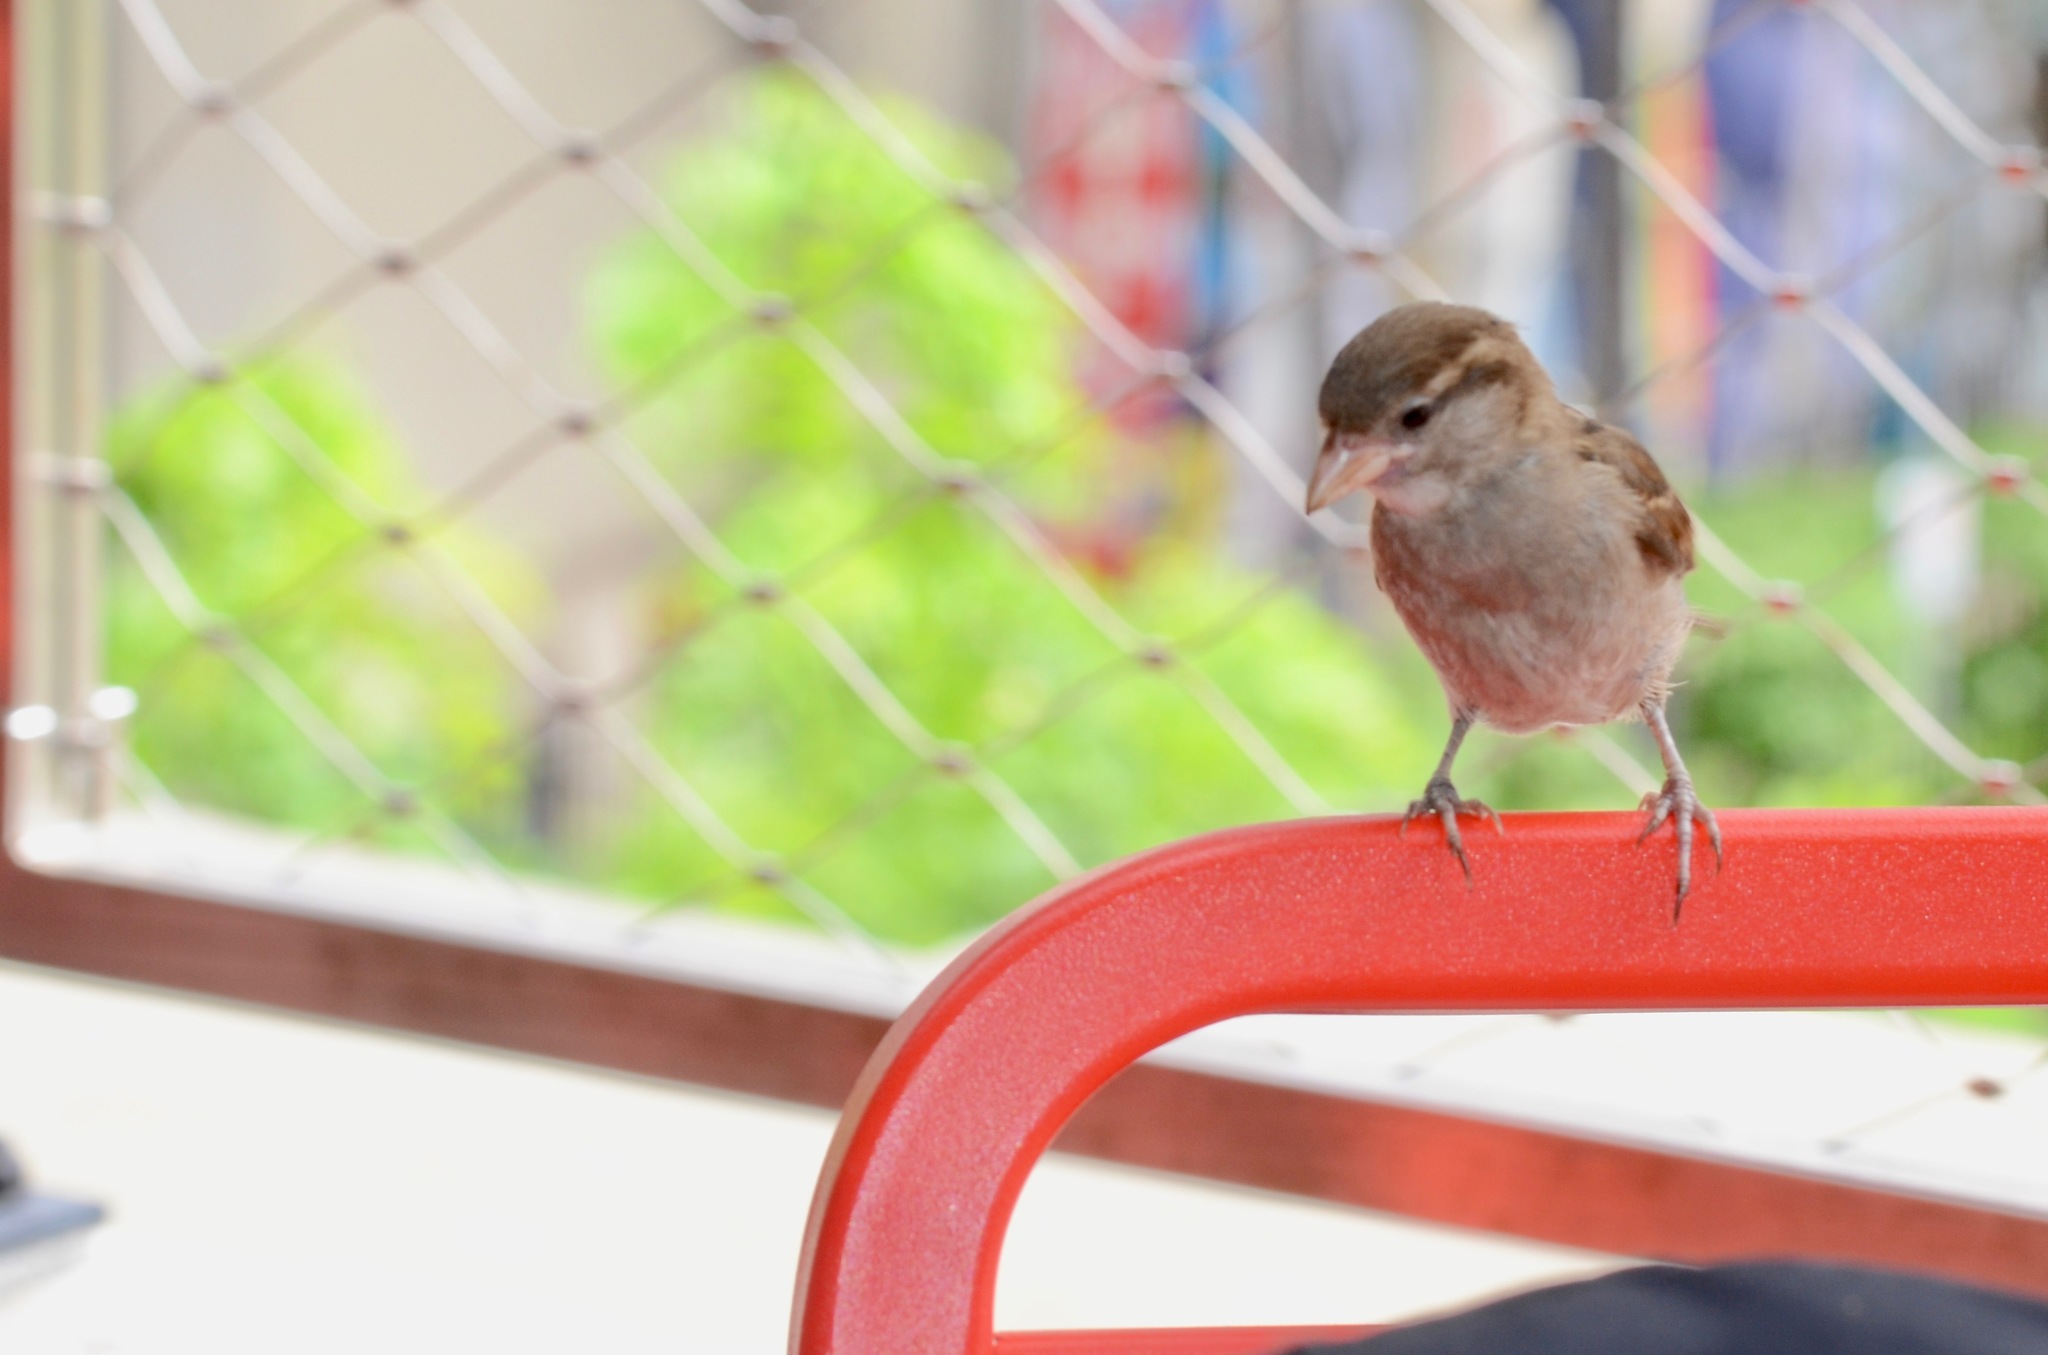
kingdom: Animalia
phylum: Chordata
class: Aves
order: Passeriformes
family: Passeridae
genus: Passer
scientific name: Passer domesticus
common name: House sparrow
